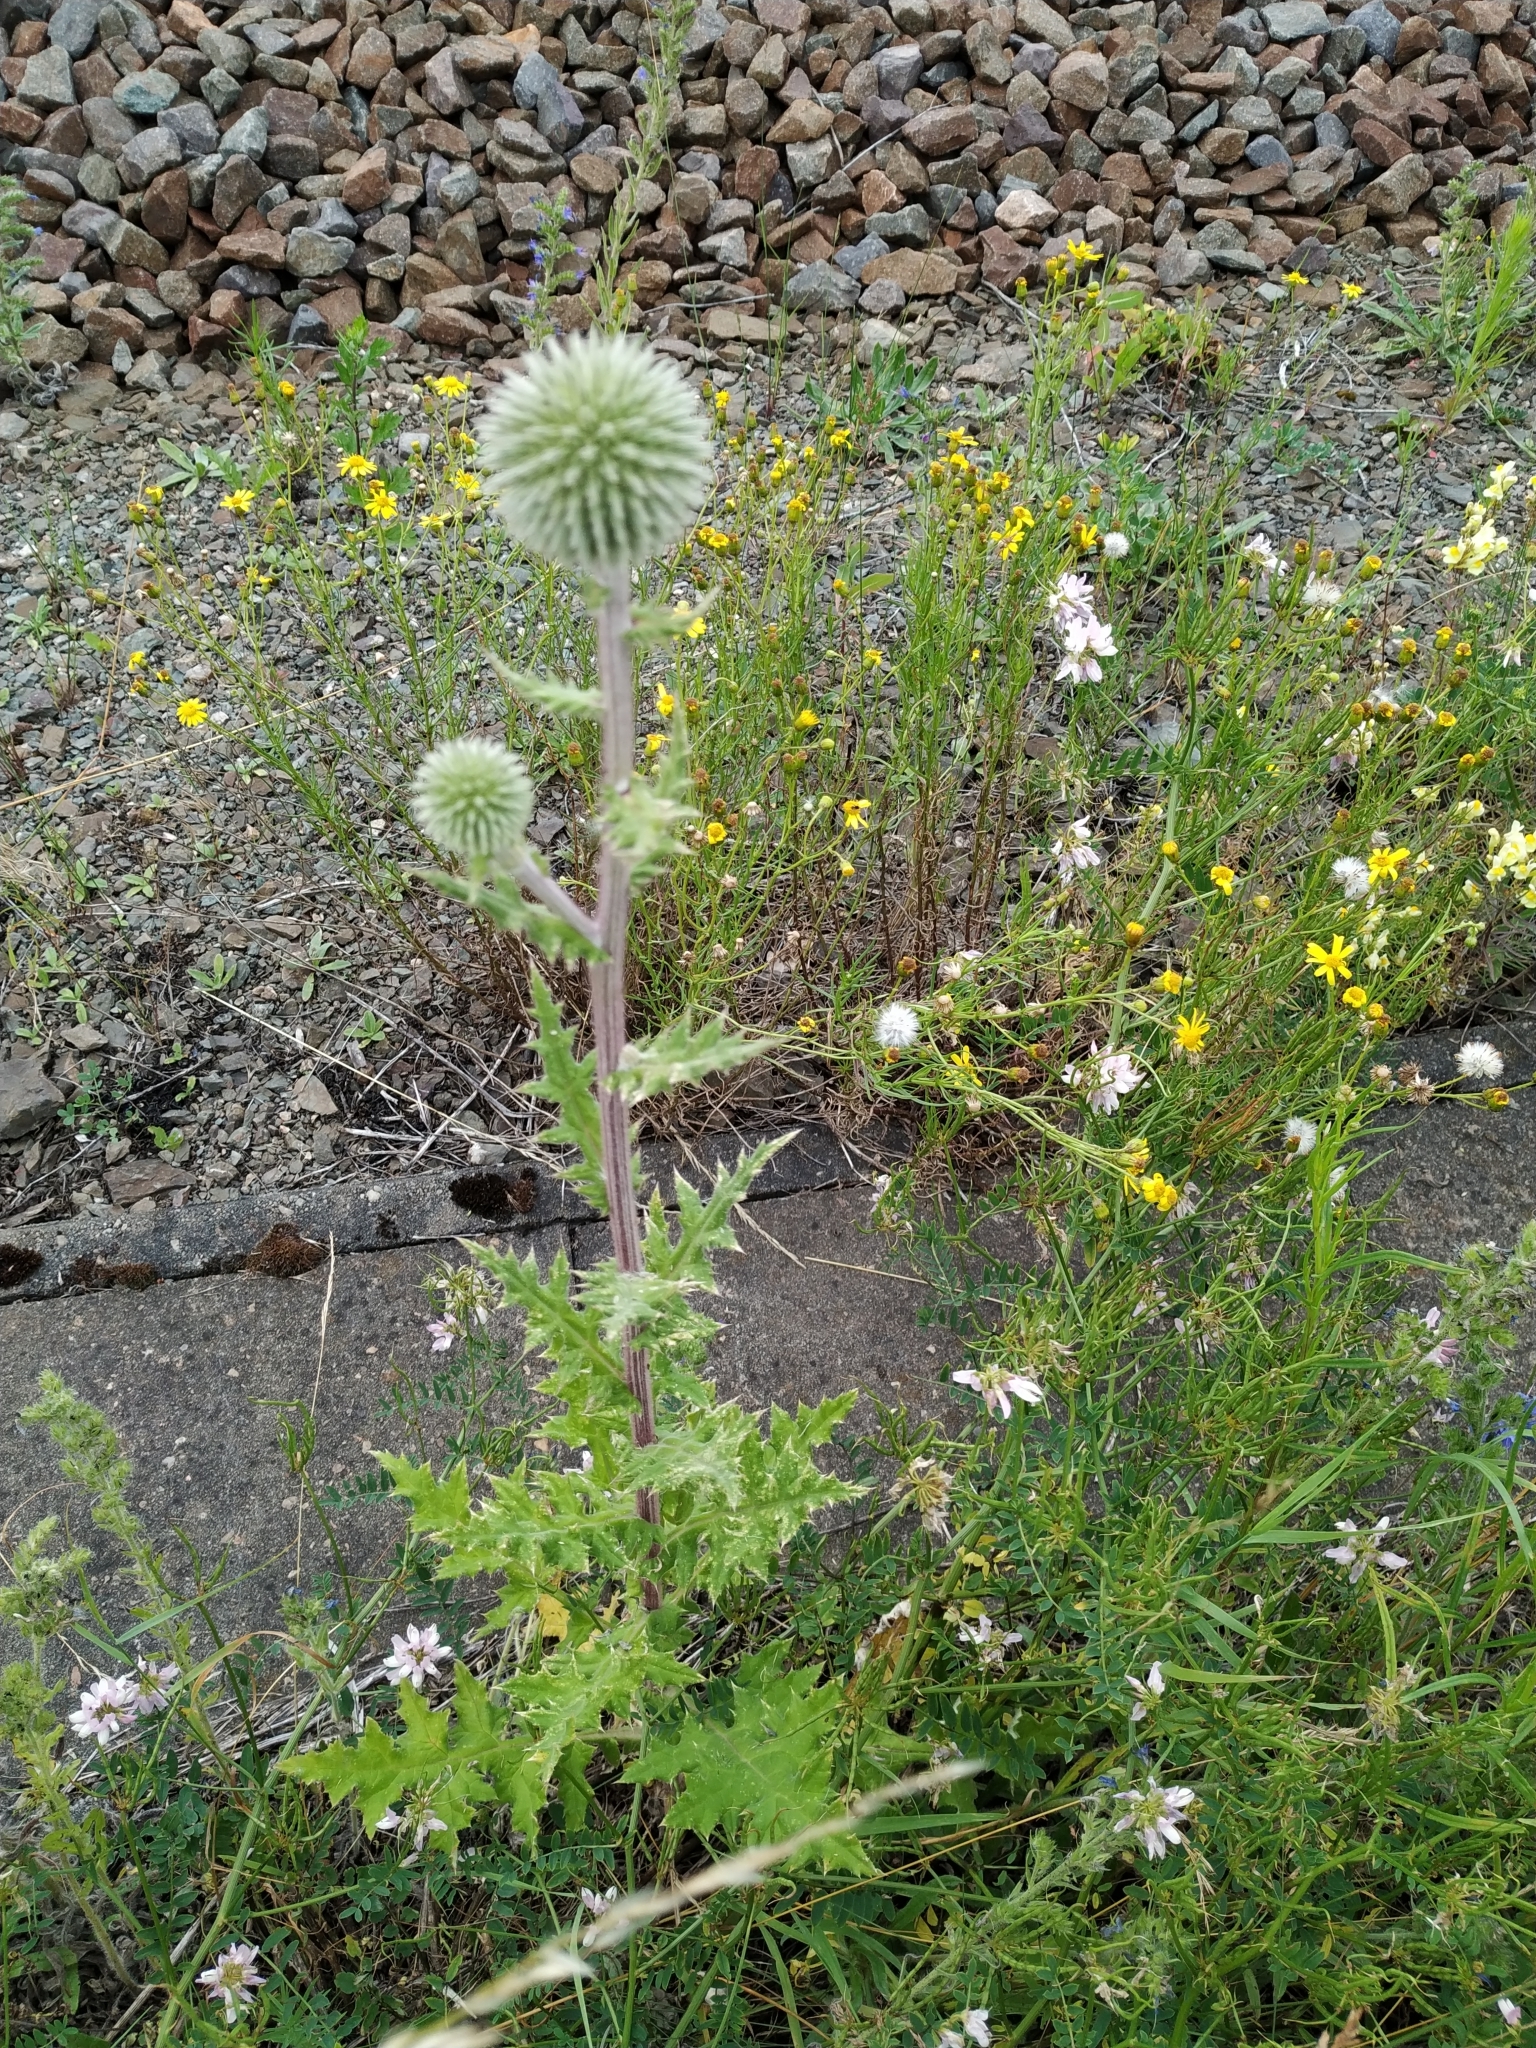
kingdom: Plantae
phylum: Tracheophyta
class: Magnoliopsida
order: Asterales
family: Asteraceae
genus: Echinops
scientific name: Echinops sphaerocephalus
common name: Glandular globe-thistle
